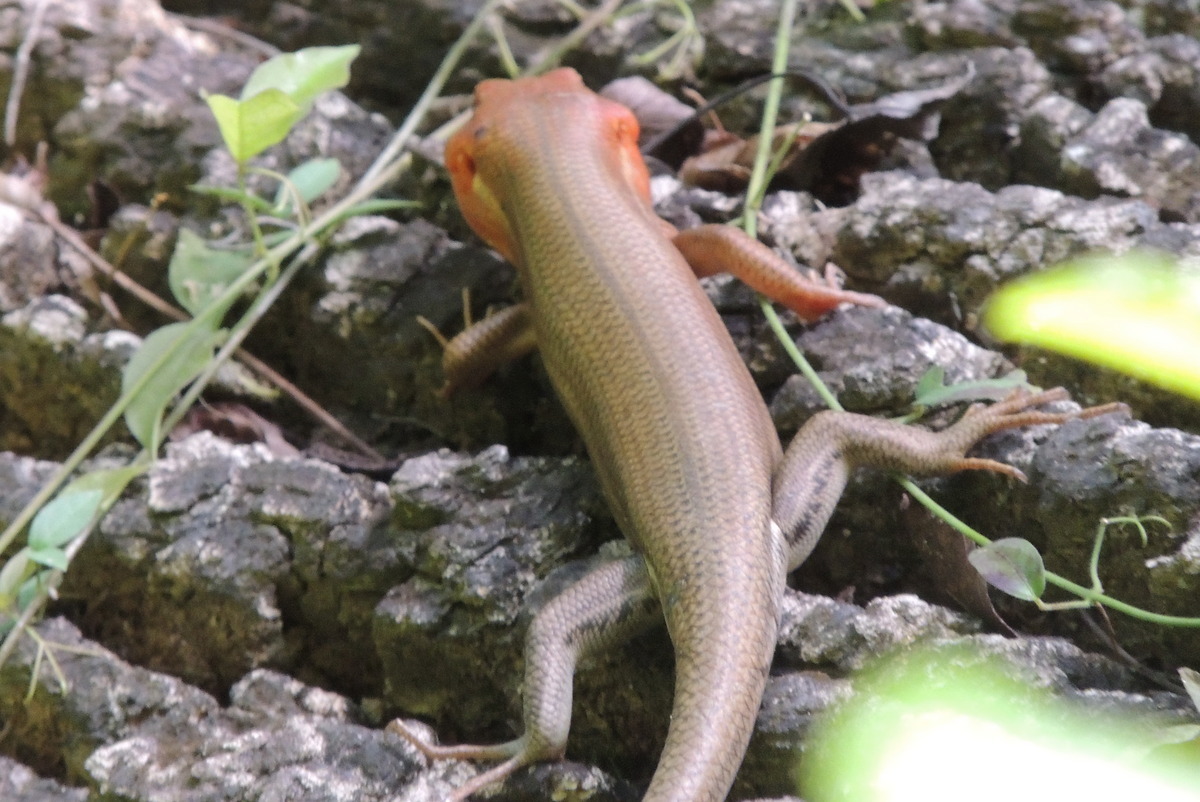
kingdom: Animalia
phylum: Chordata
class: Squamata
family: Scincidae
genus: Plestiodon
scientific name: Plestiodon laticeps
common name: Broadhead skink
